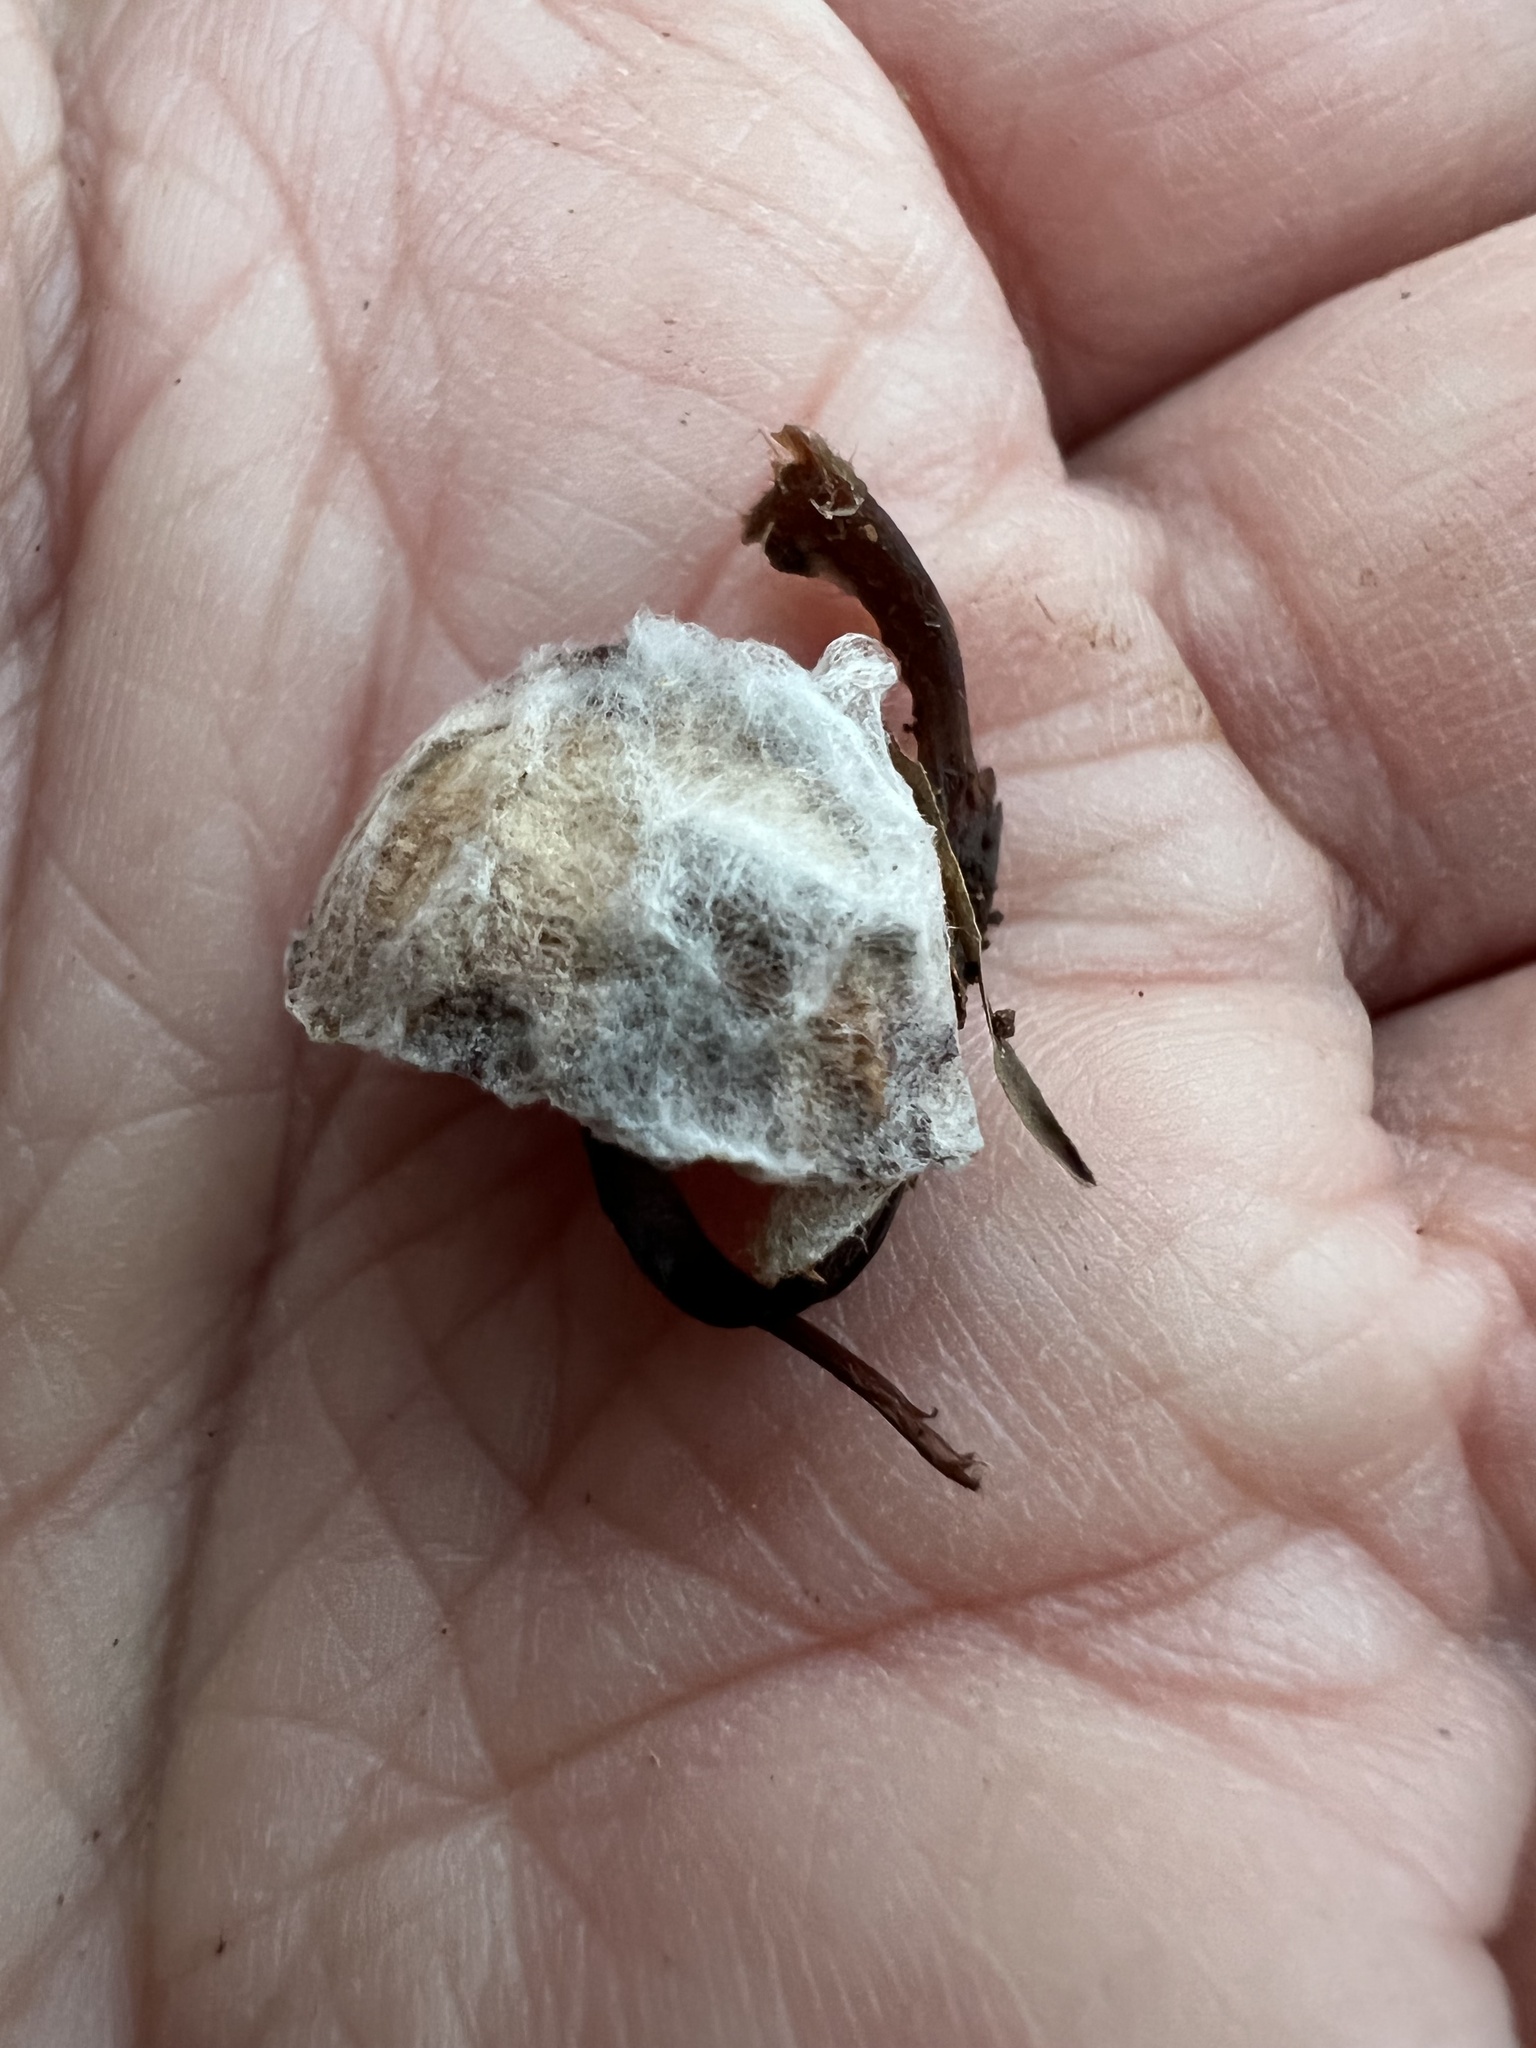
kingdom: Fungi
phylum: Mucoromycota
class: Mucoromycetes
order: Mucorales
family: Rhizopodaceae
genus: Syzygites
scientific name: Syzygites megalocarpus
